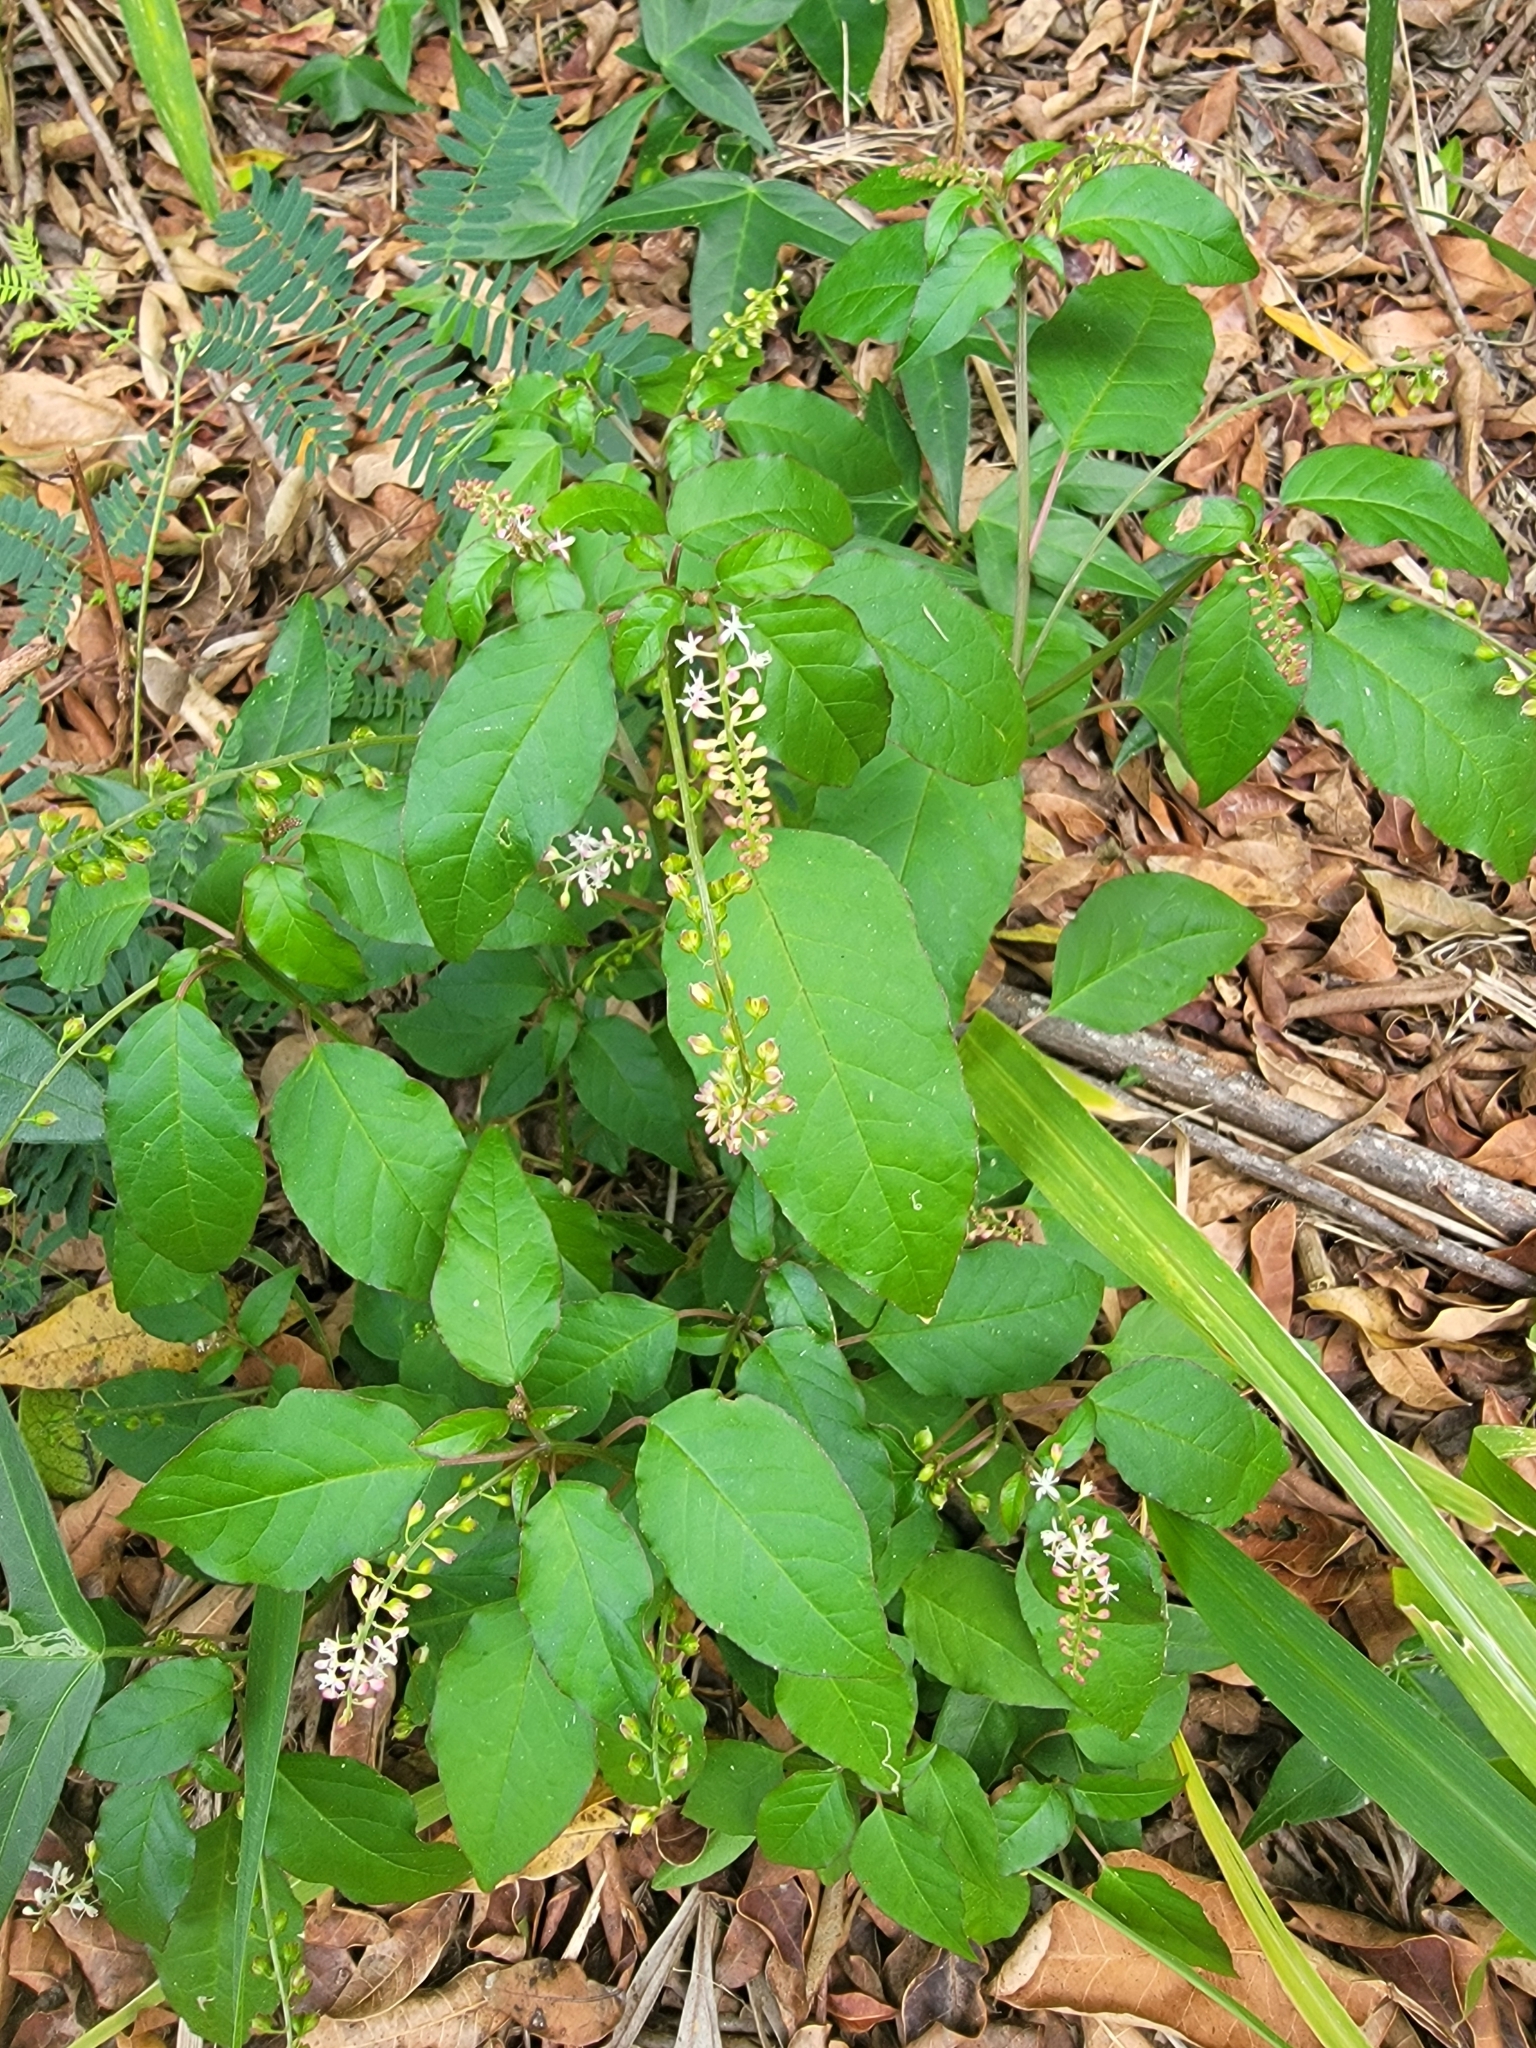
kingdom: Plantae
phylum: Tracheophyta
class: Magnoliopsida
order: Caryophyllales
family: Phytolaccaceae
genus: Rivina
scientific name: Rivina humilis
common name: Rougeplant
